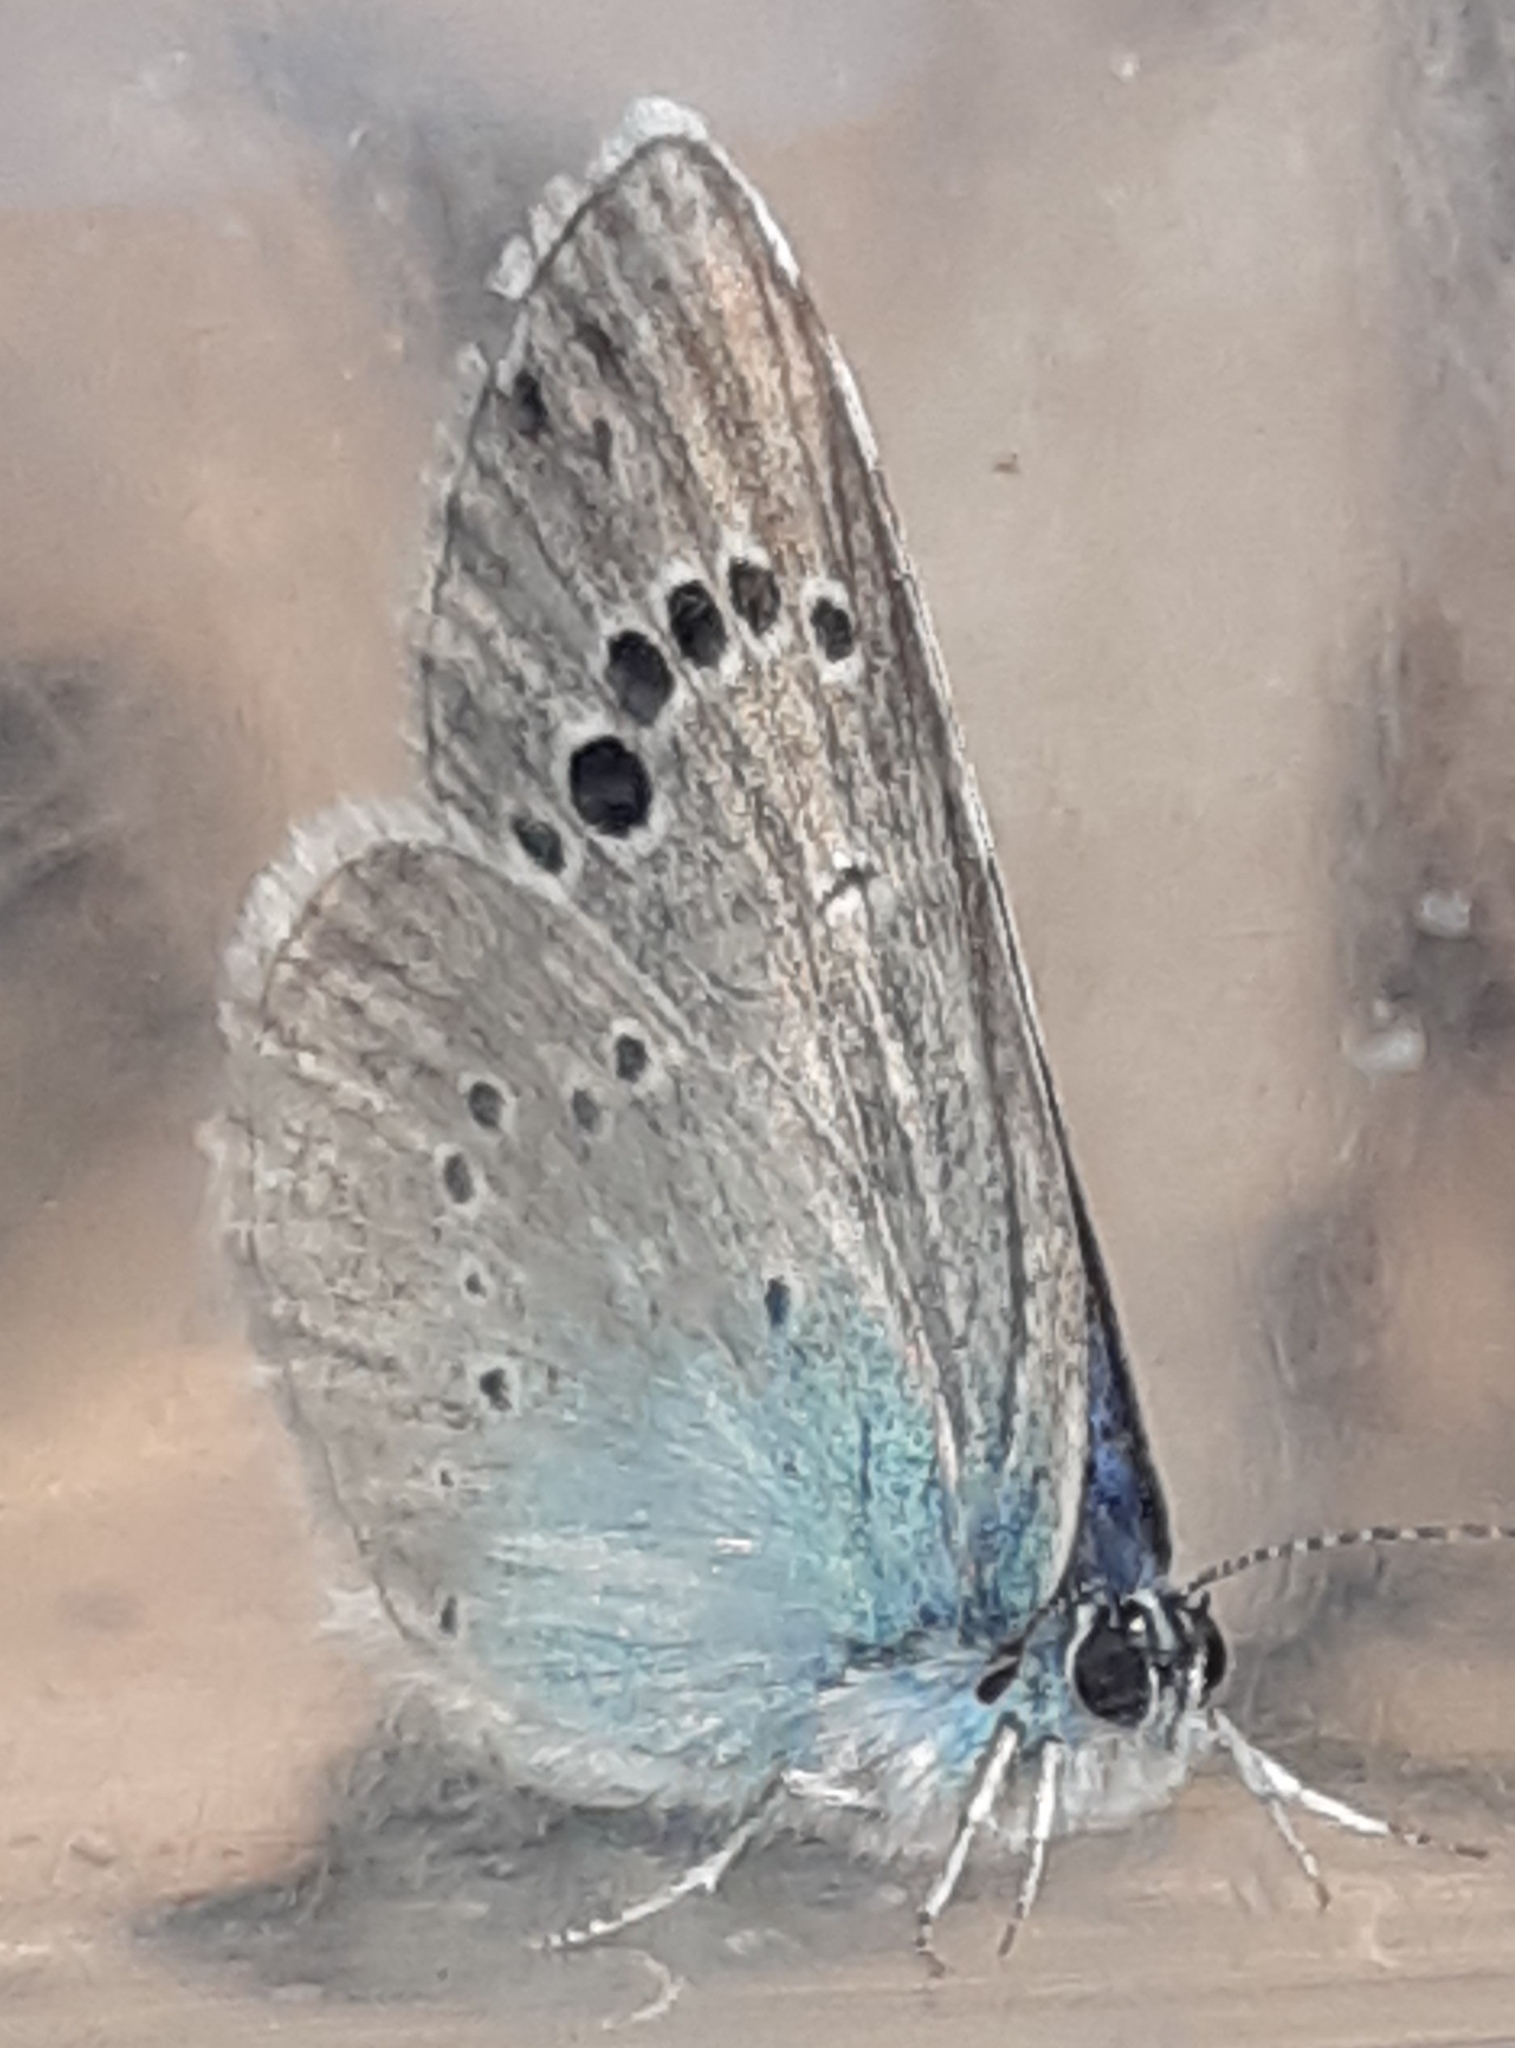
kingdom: Animalia
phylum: Arthropoda
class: Insecta
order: Lepidoptera
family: Lycaenidae
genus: Glaucopsyche
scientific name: Glaucopsyche alexis
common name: Green-underside blue
